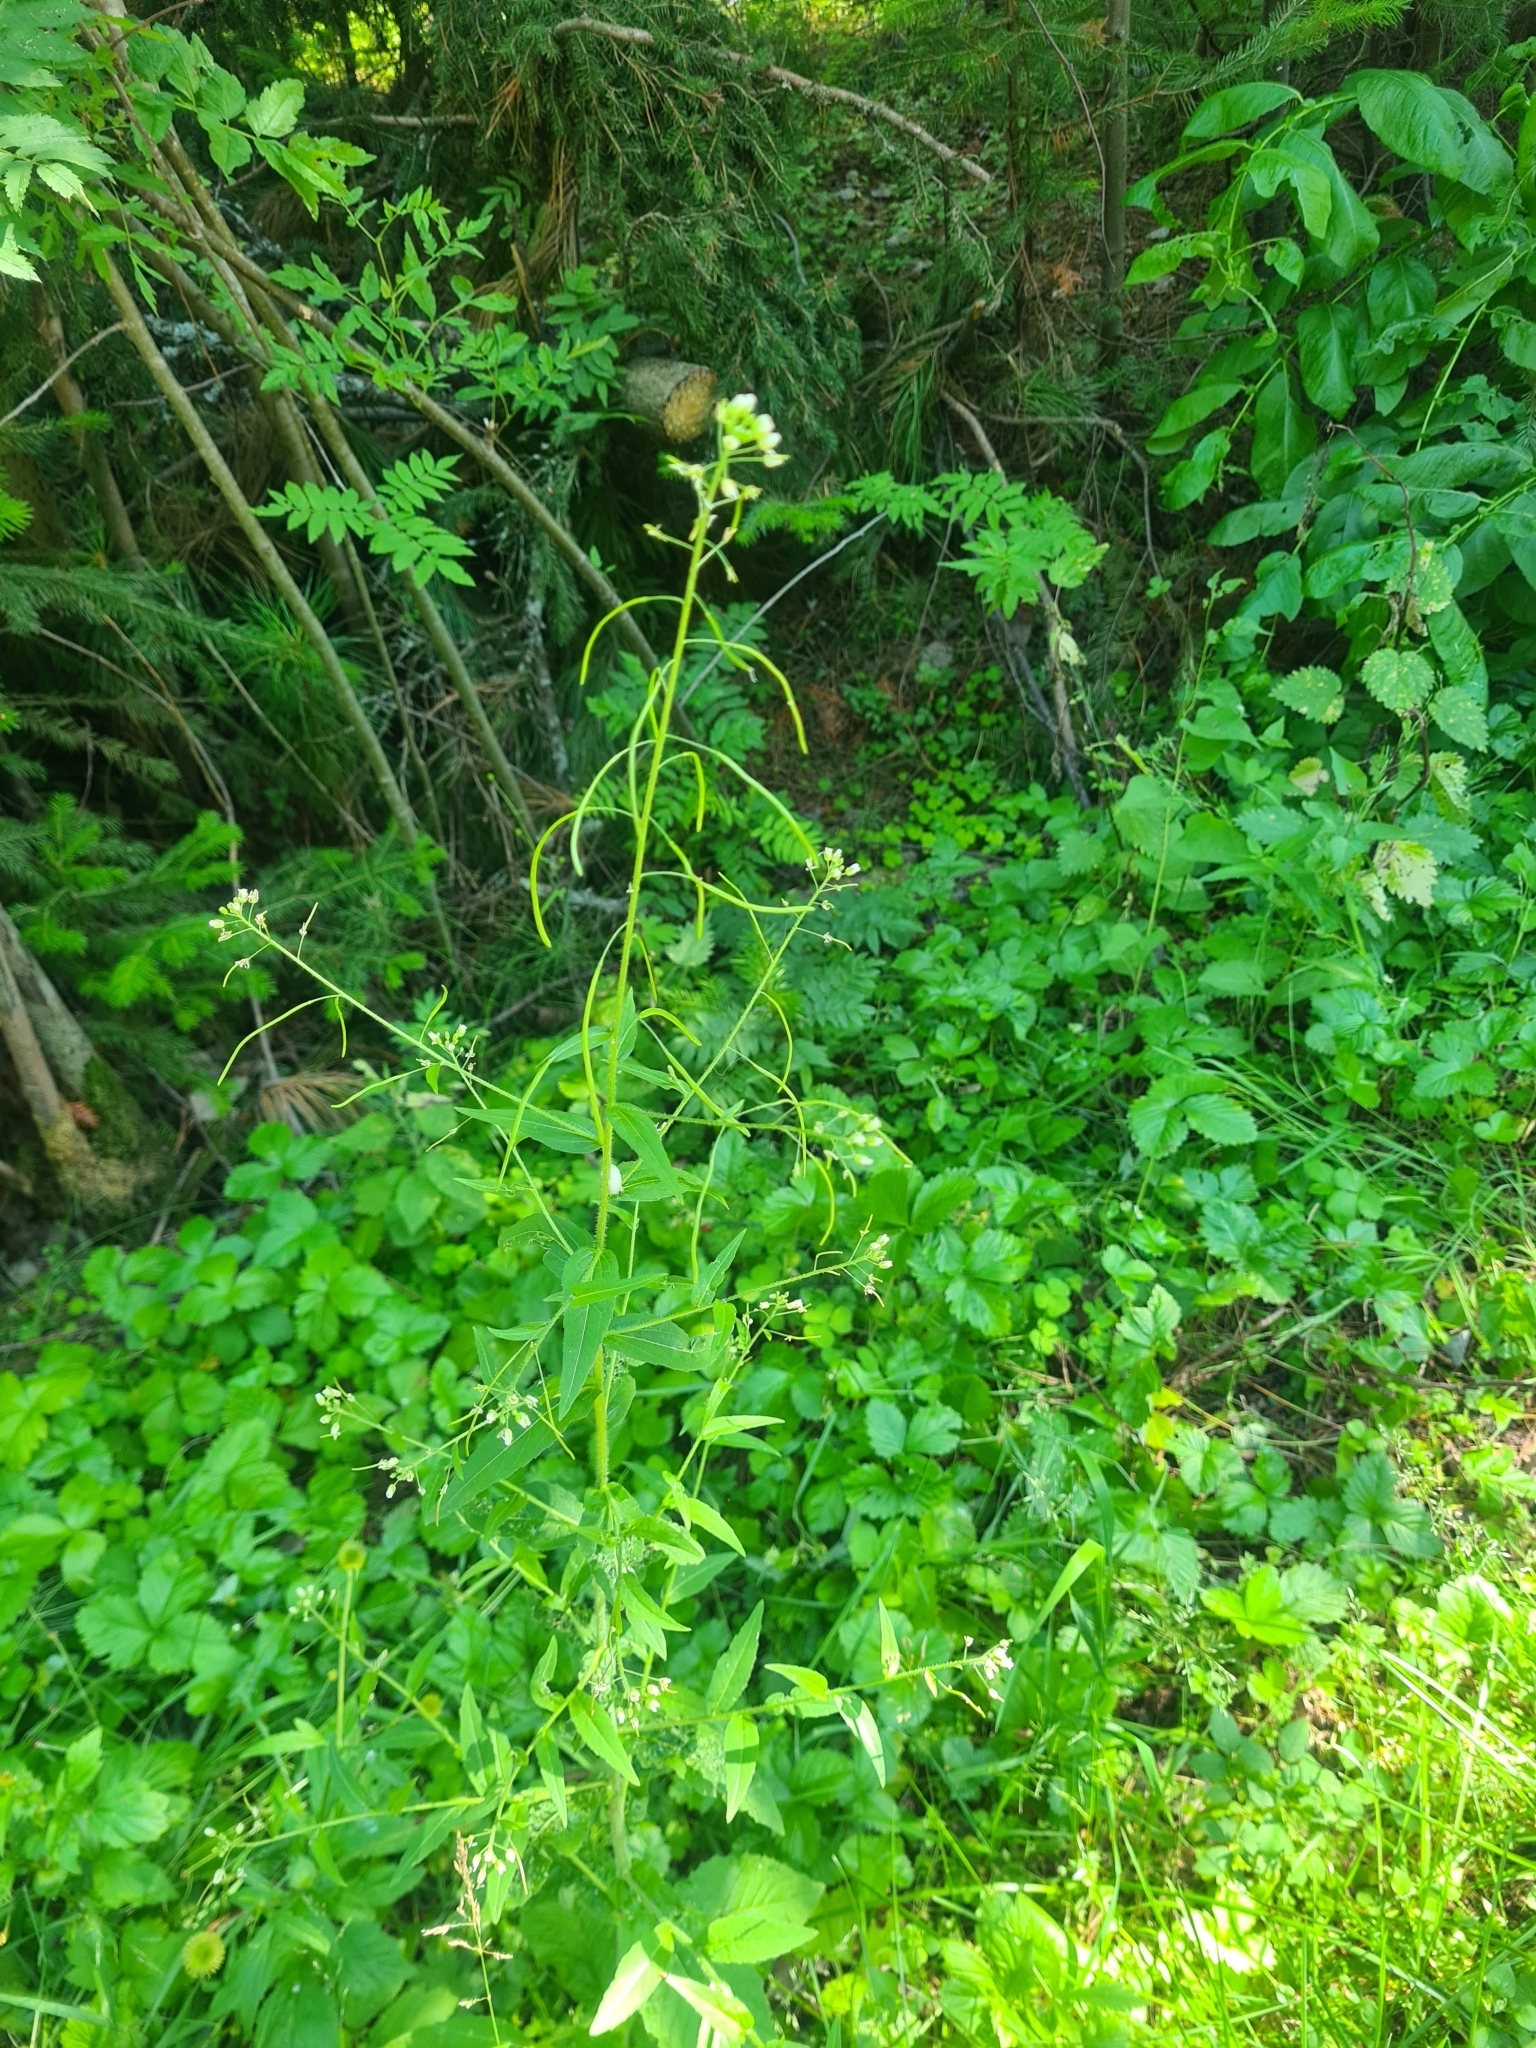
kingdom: Plantae
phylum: Tracheophyta
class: Magnoliopsida
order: Brassicales
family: Brassicaceae
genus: Catolobus
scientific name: Catolobus pendulus
